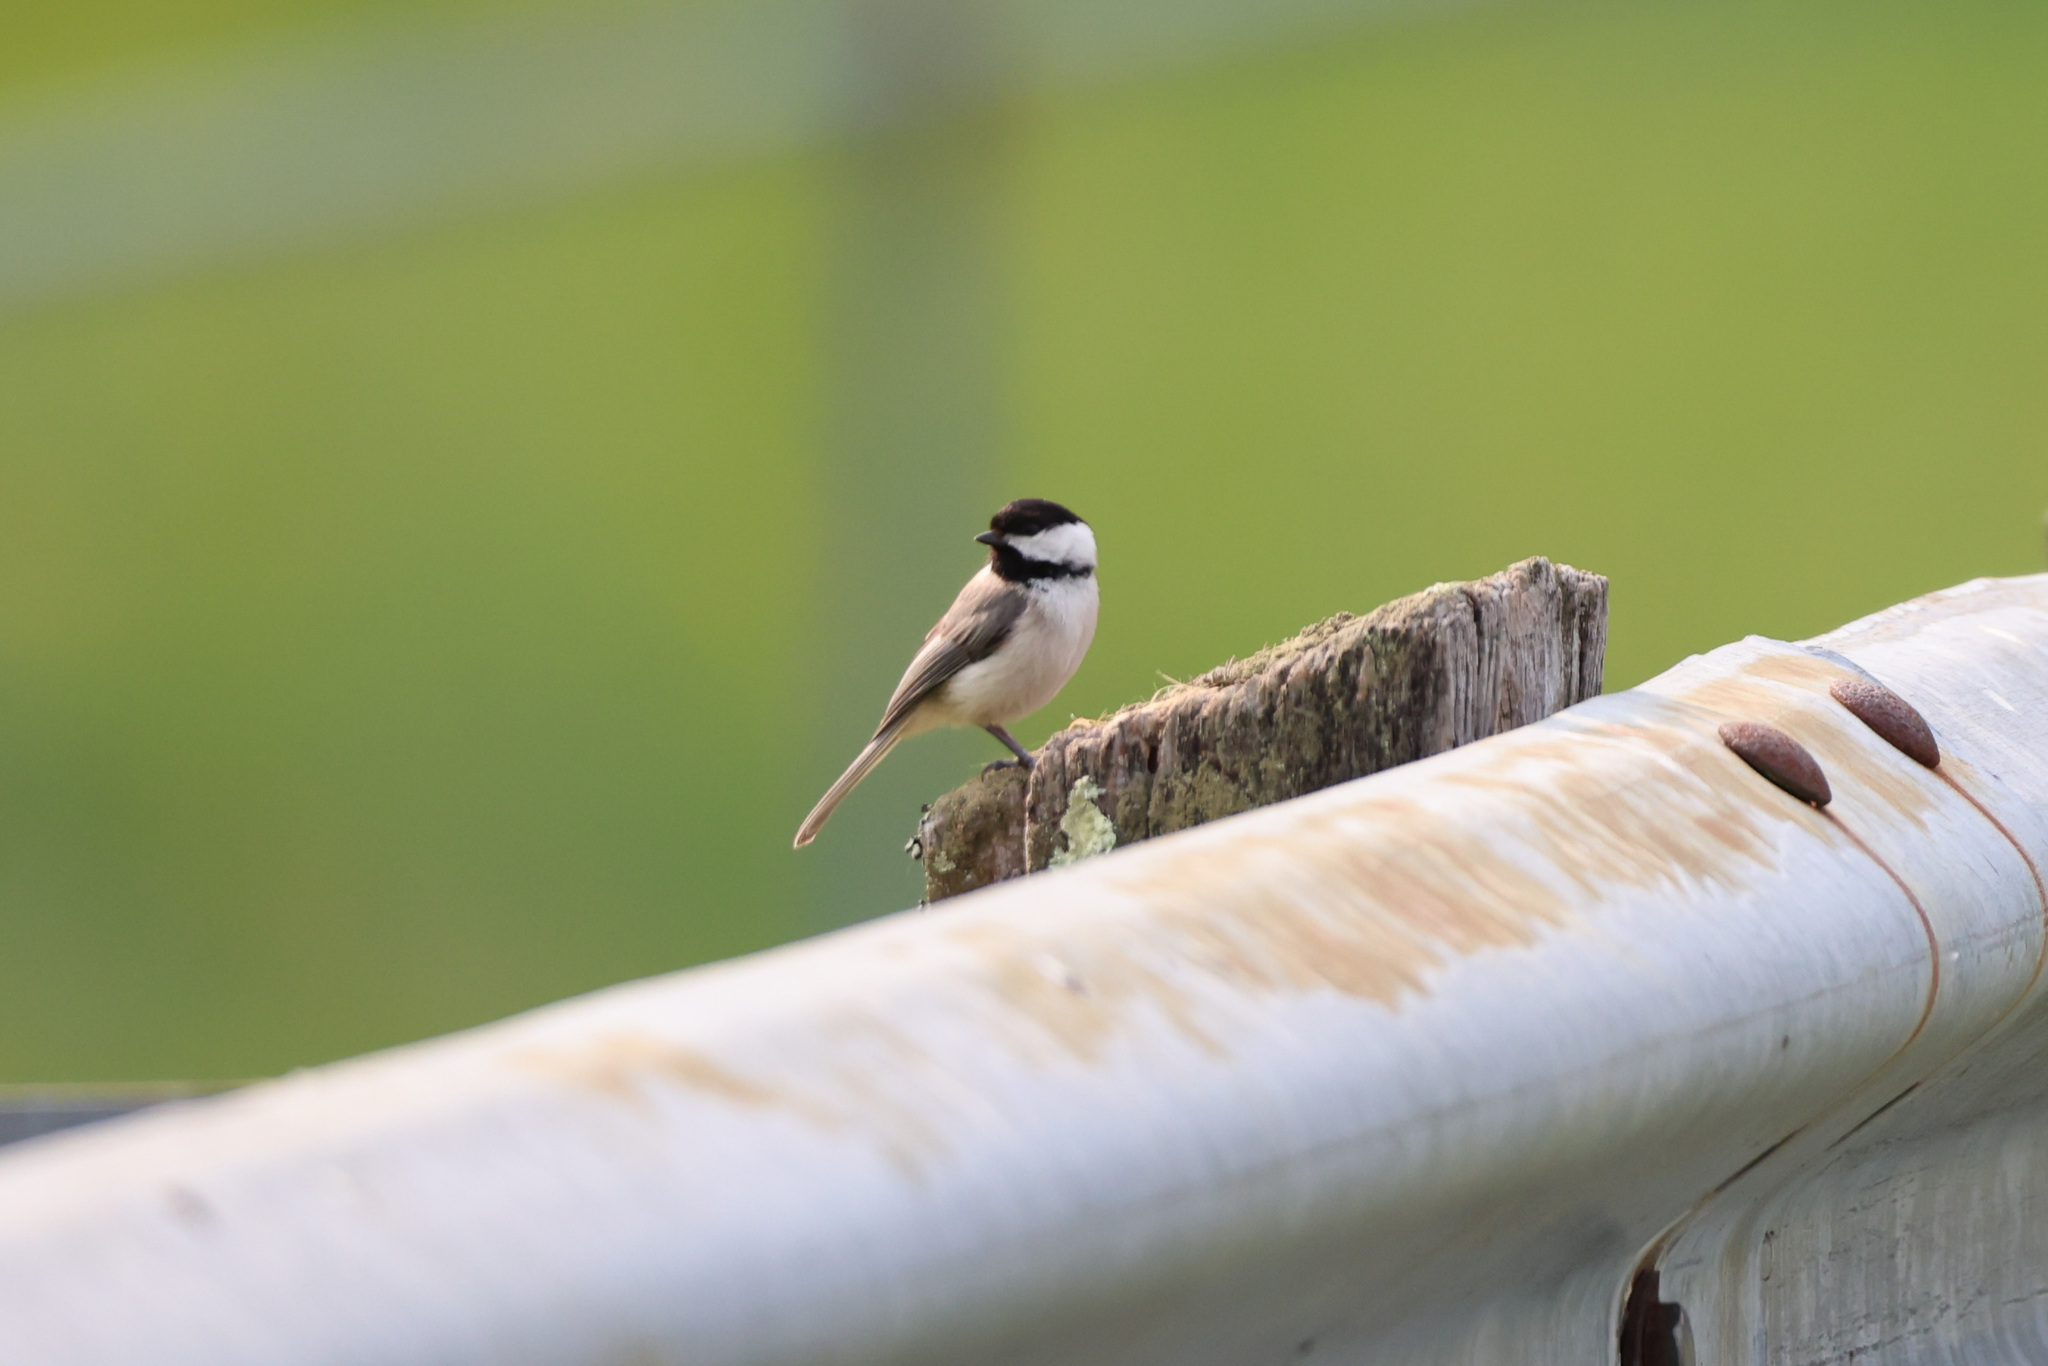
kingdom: Animalia
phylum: Chordata
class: Aves
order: Passeriformes
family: Paridae
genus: Poecile
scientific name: Poecile carolinensis
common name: Carolina chickadee
